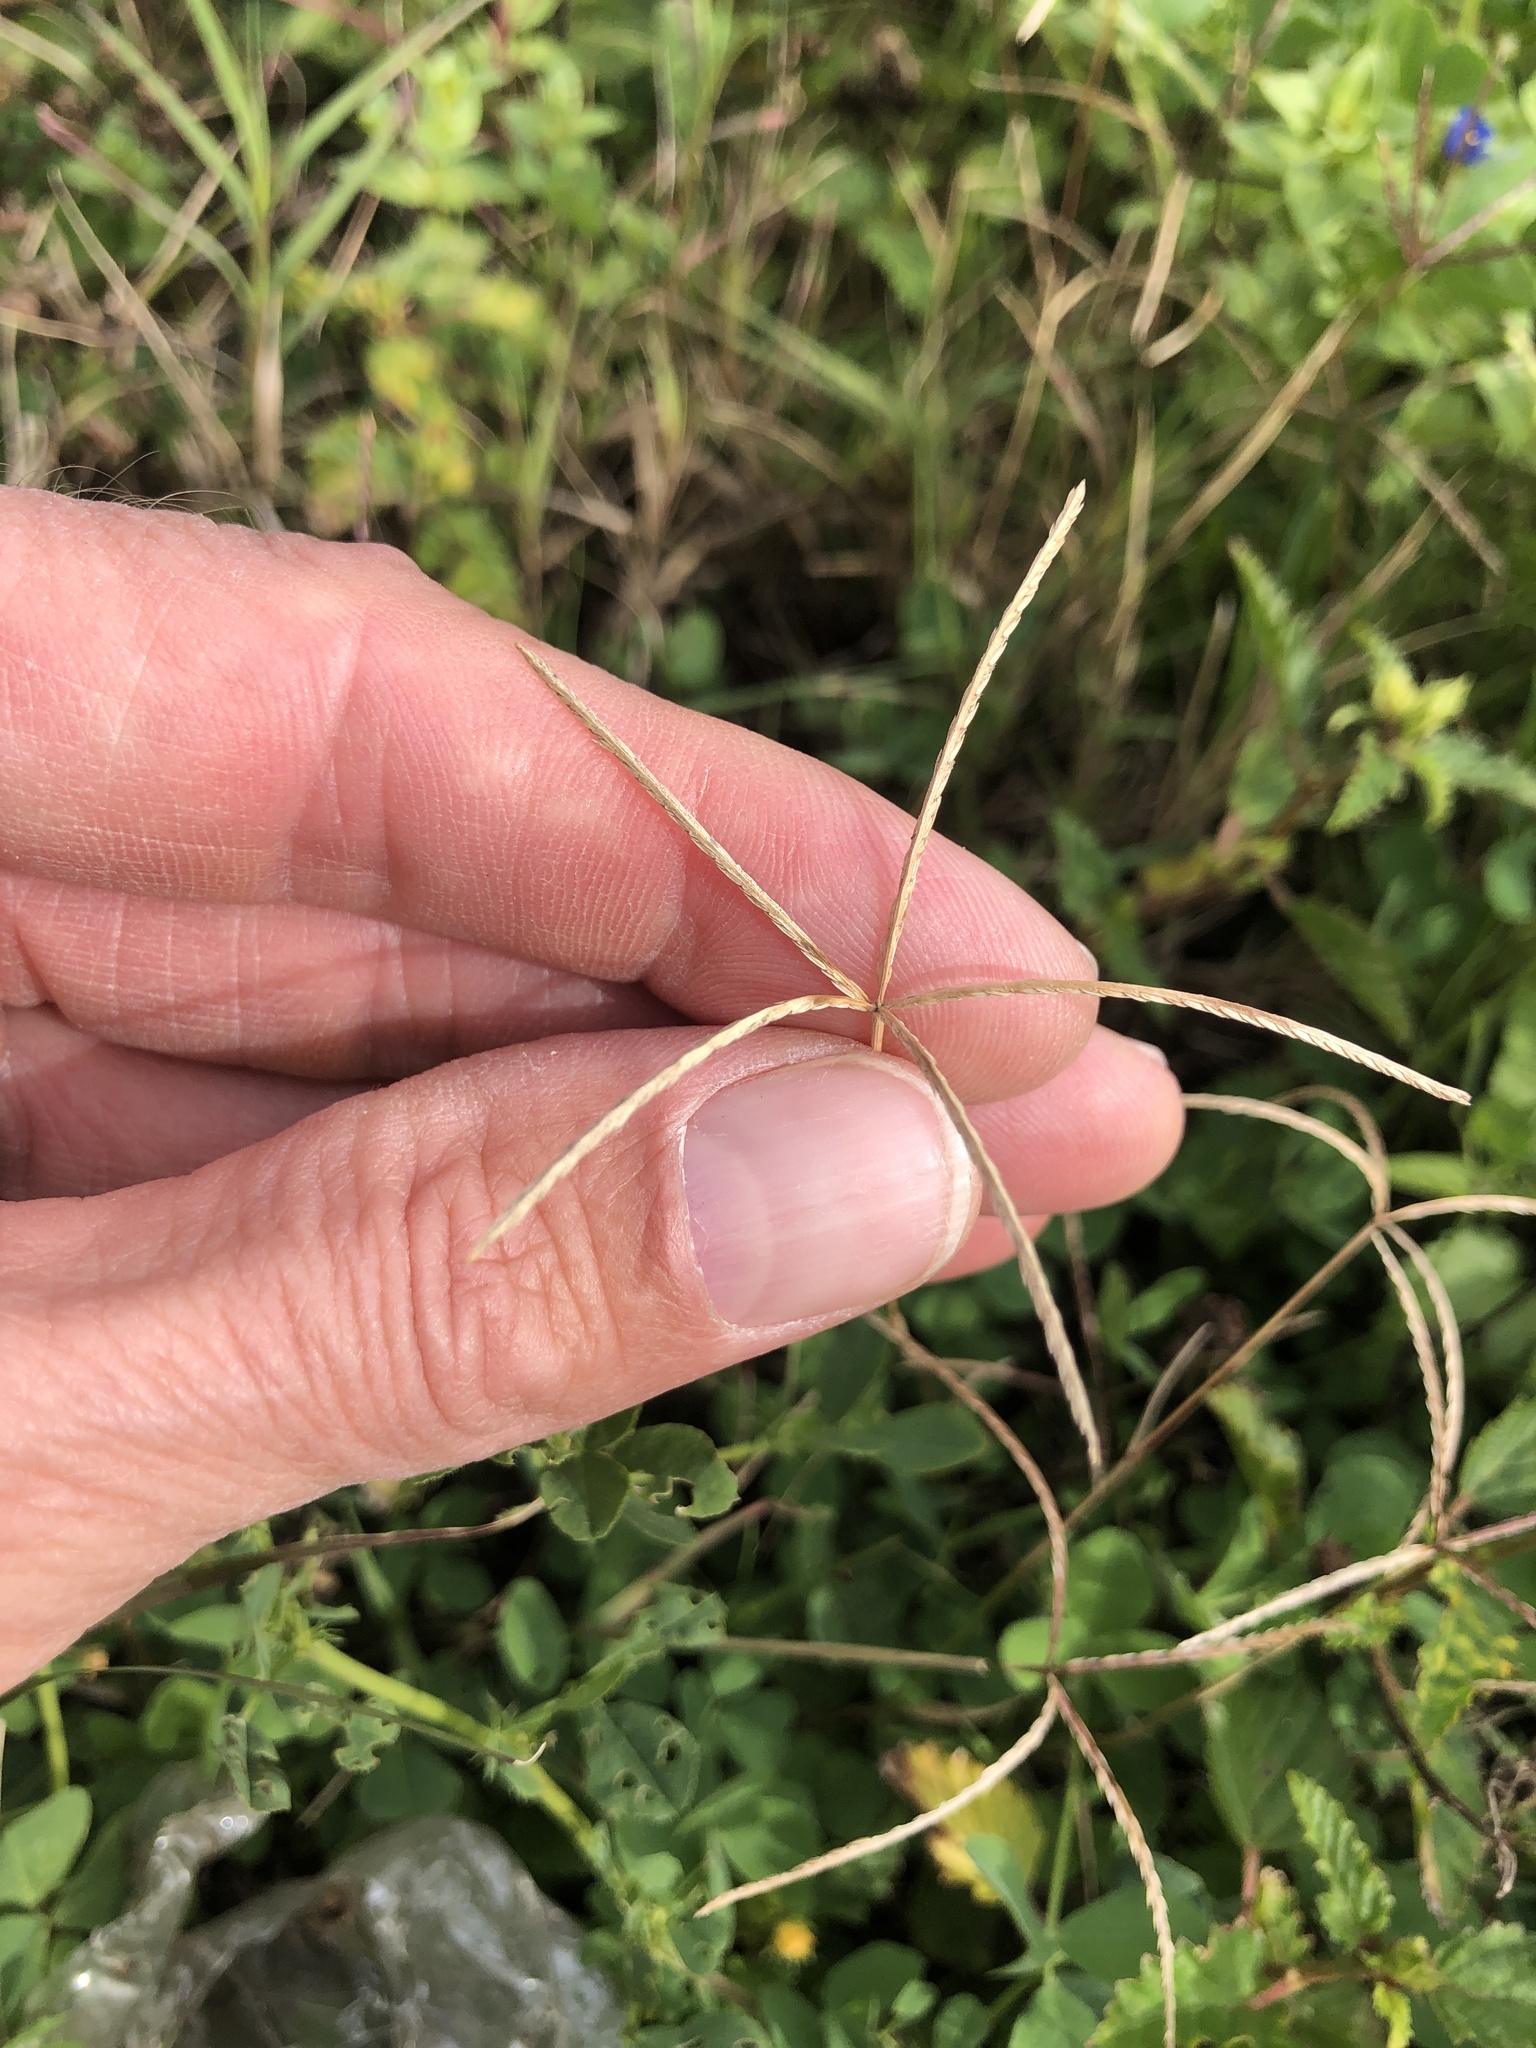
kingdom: Plantae
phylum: Tracheophyta
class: Liliopsida
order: Poales
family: Poaceae
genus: Cynodon
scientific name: Cynodon dactylon
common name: Bermuda grass
